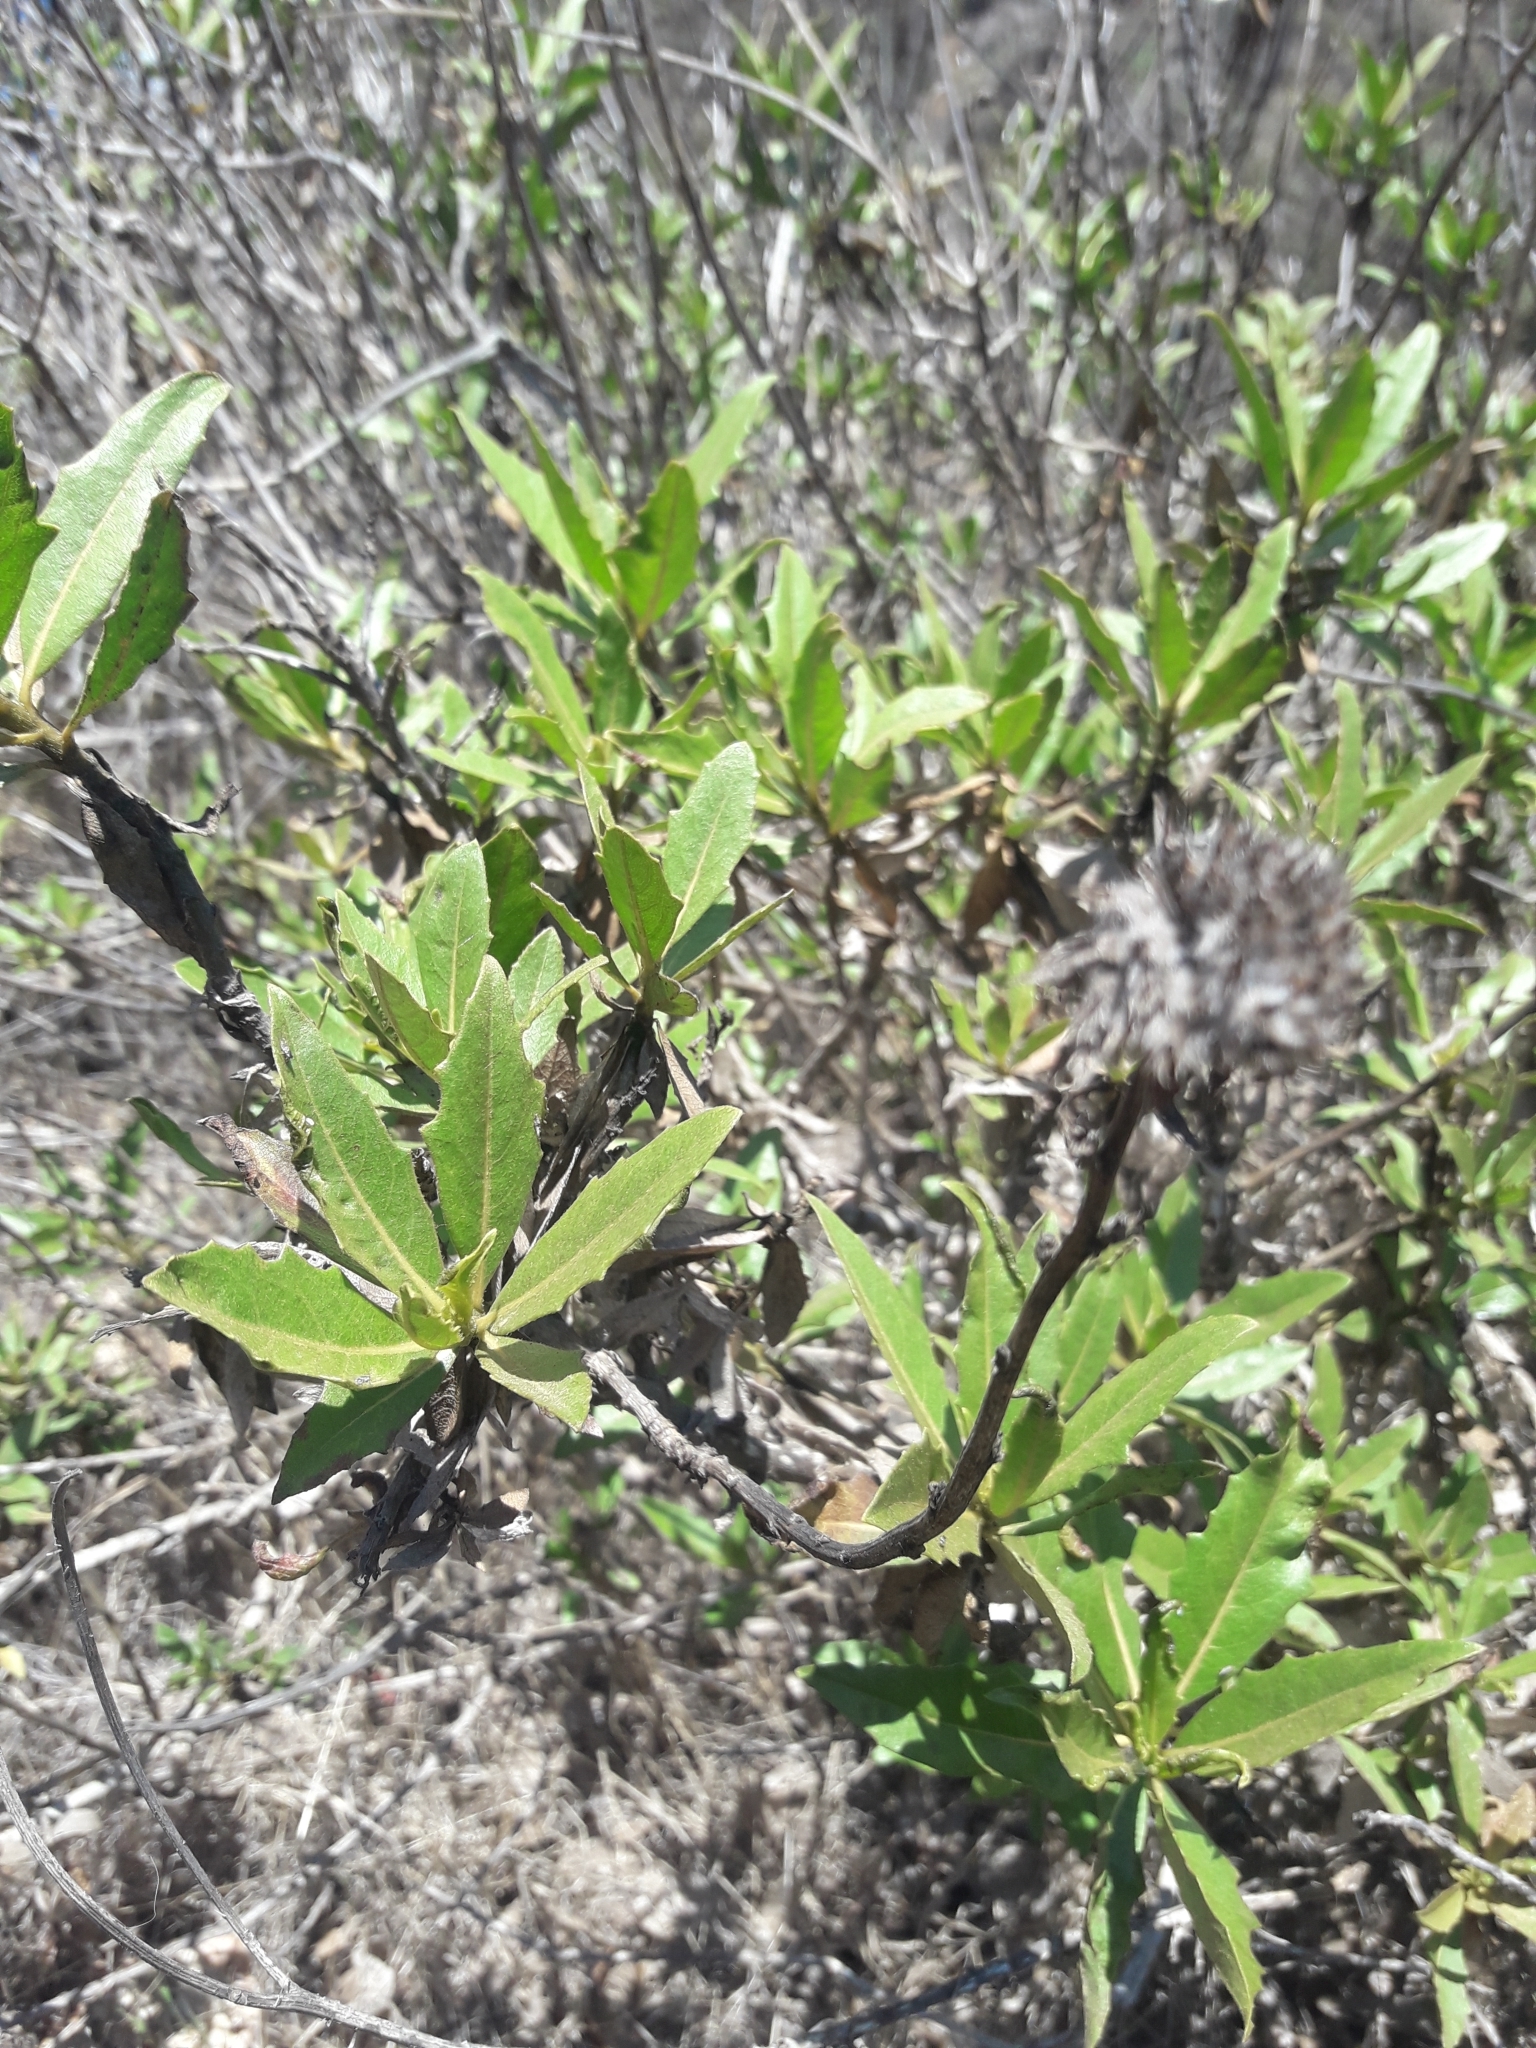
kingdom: Plantae
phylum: Tracheophyta
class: Magnoliopsida
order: Asterales
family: Asteraceae
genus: Flourensia
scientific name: Flourensia thurifera
